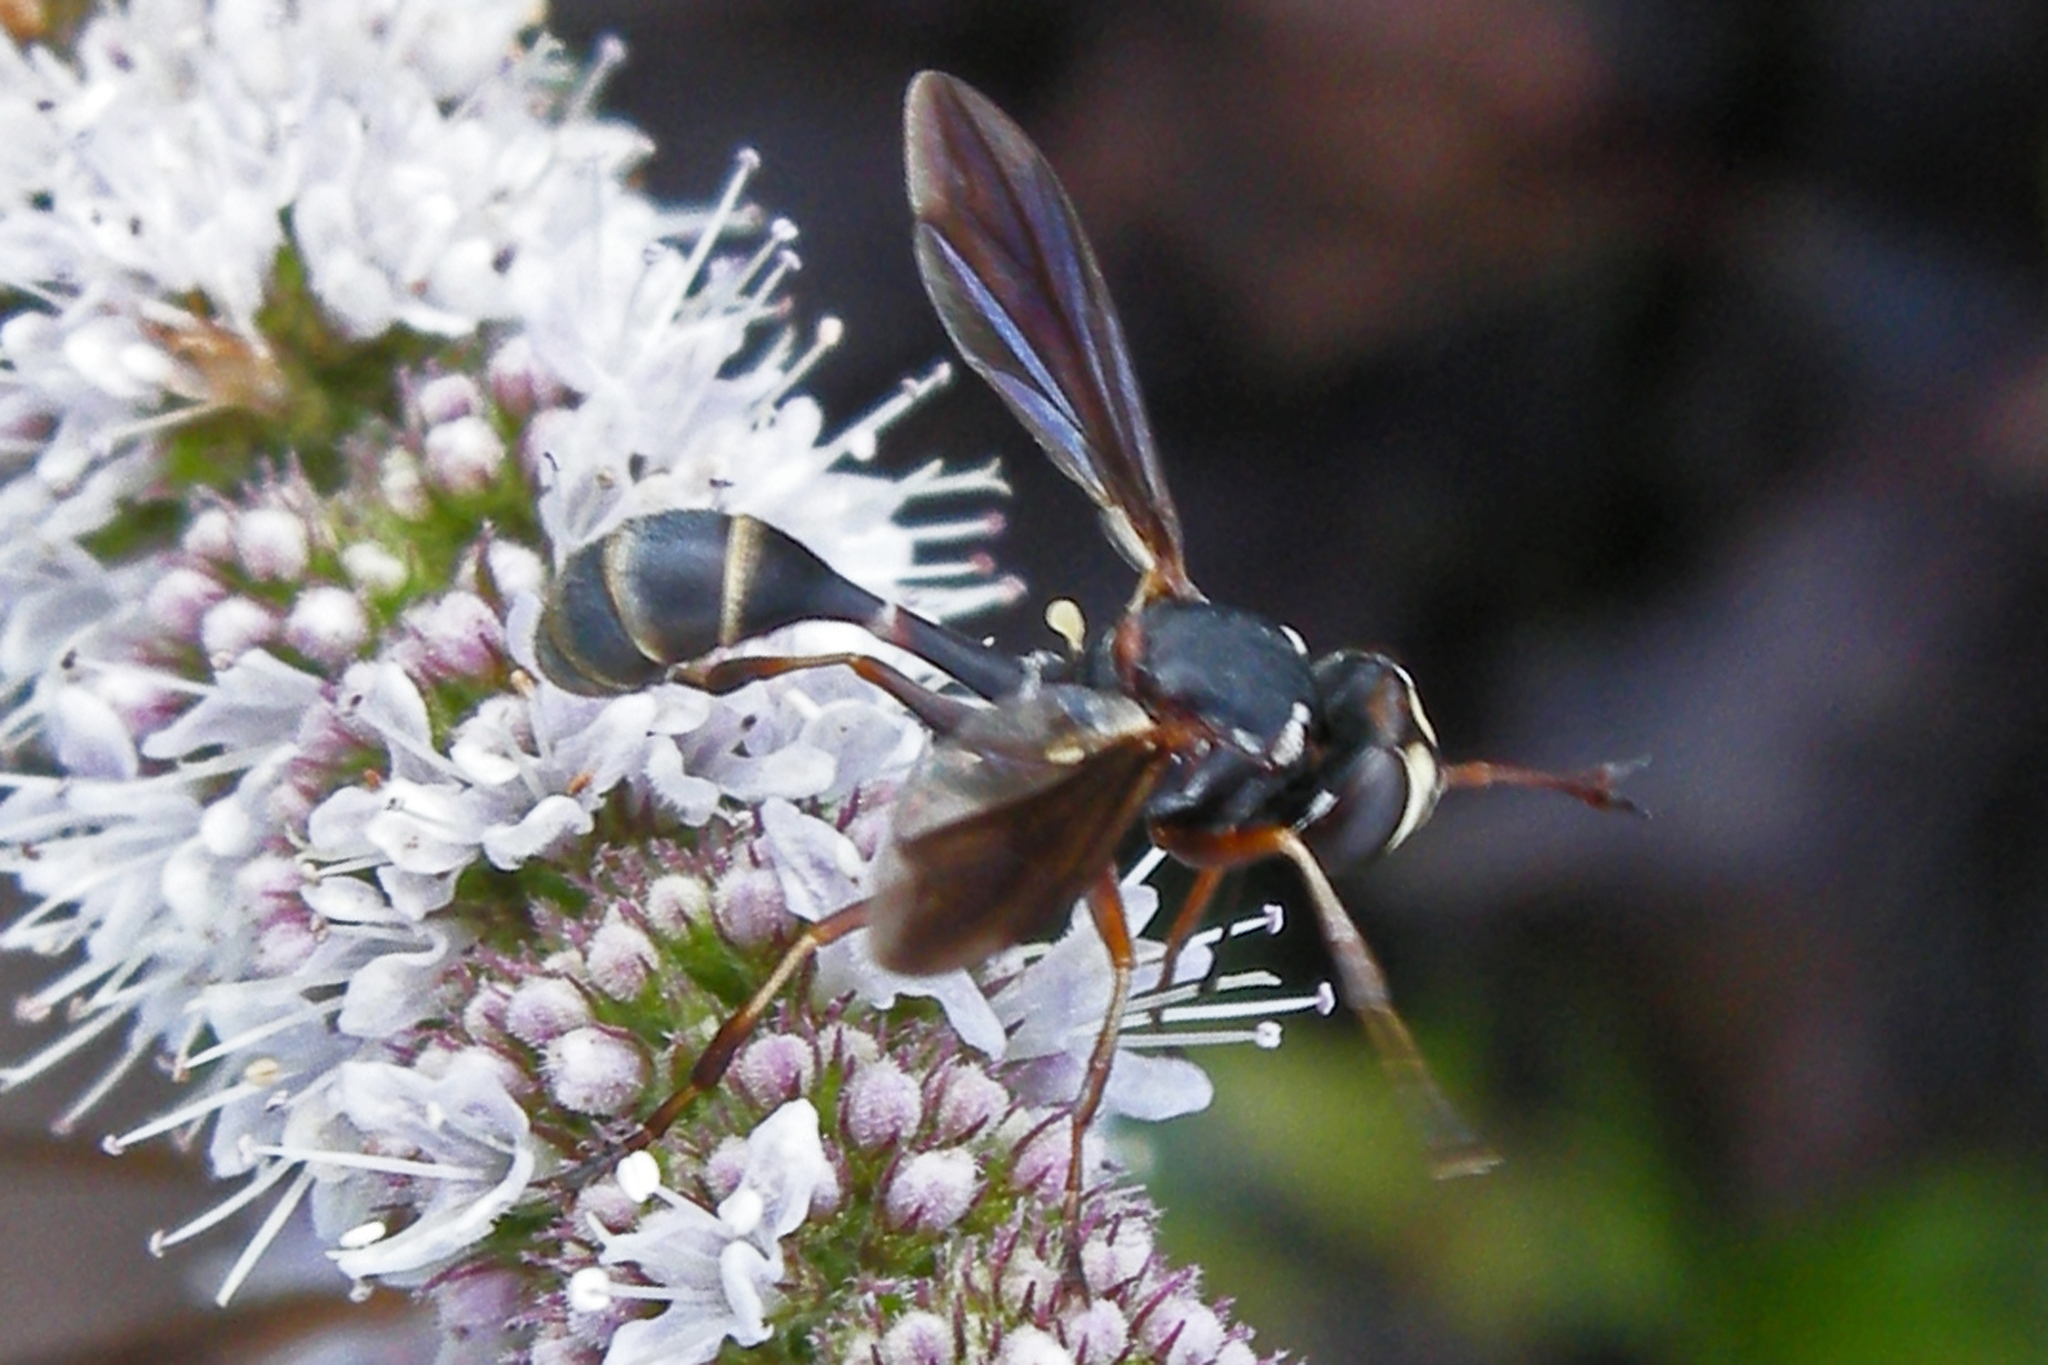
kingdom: Animalia
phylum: Arthropoda
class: Insecta
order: Diptera
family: Conopidae
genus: Physocephala
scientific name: Physocephala sagittaria
